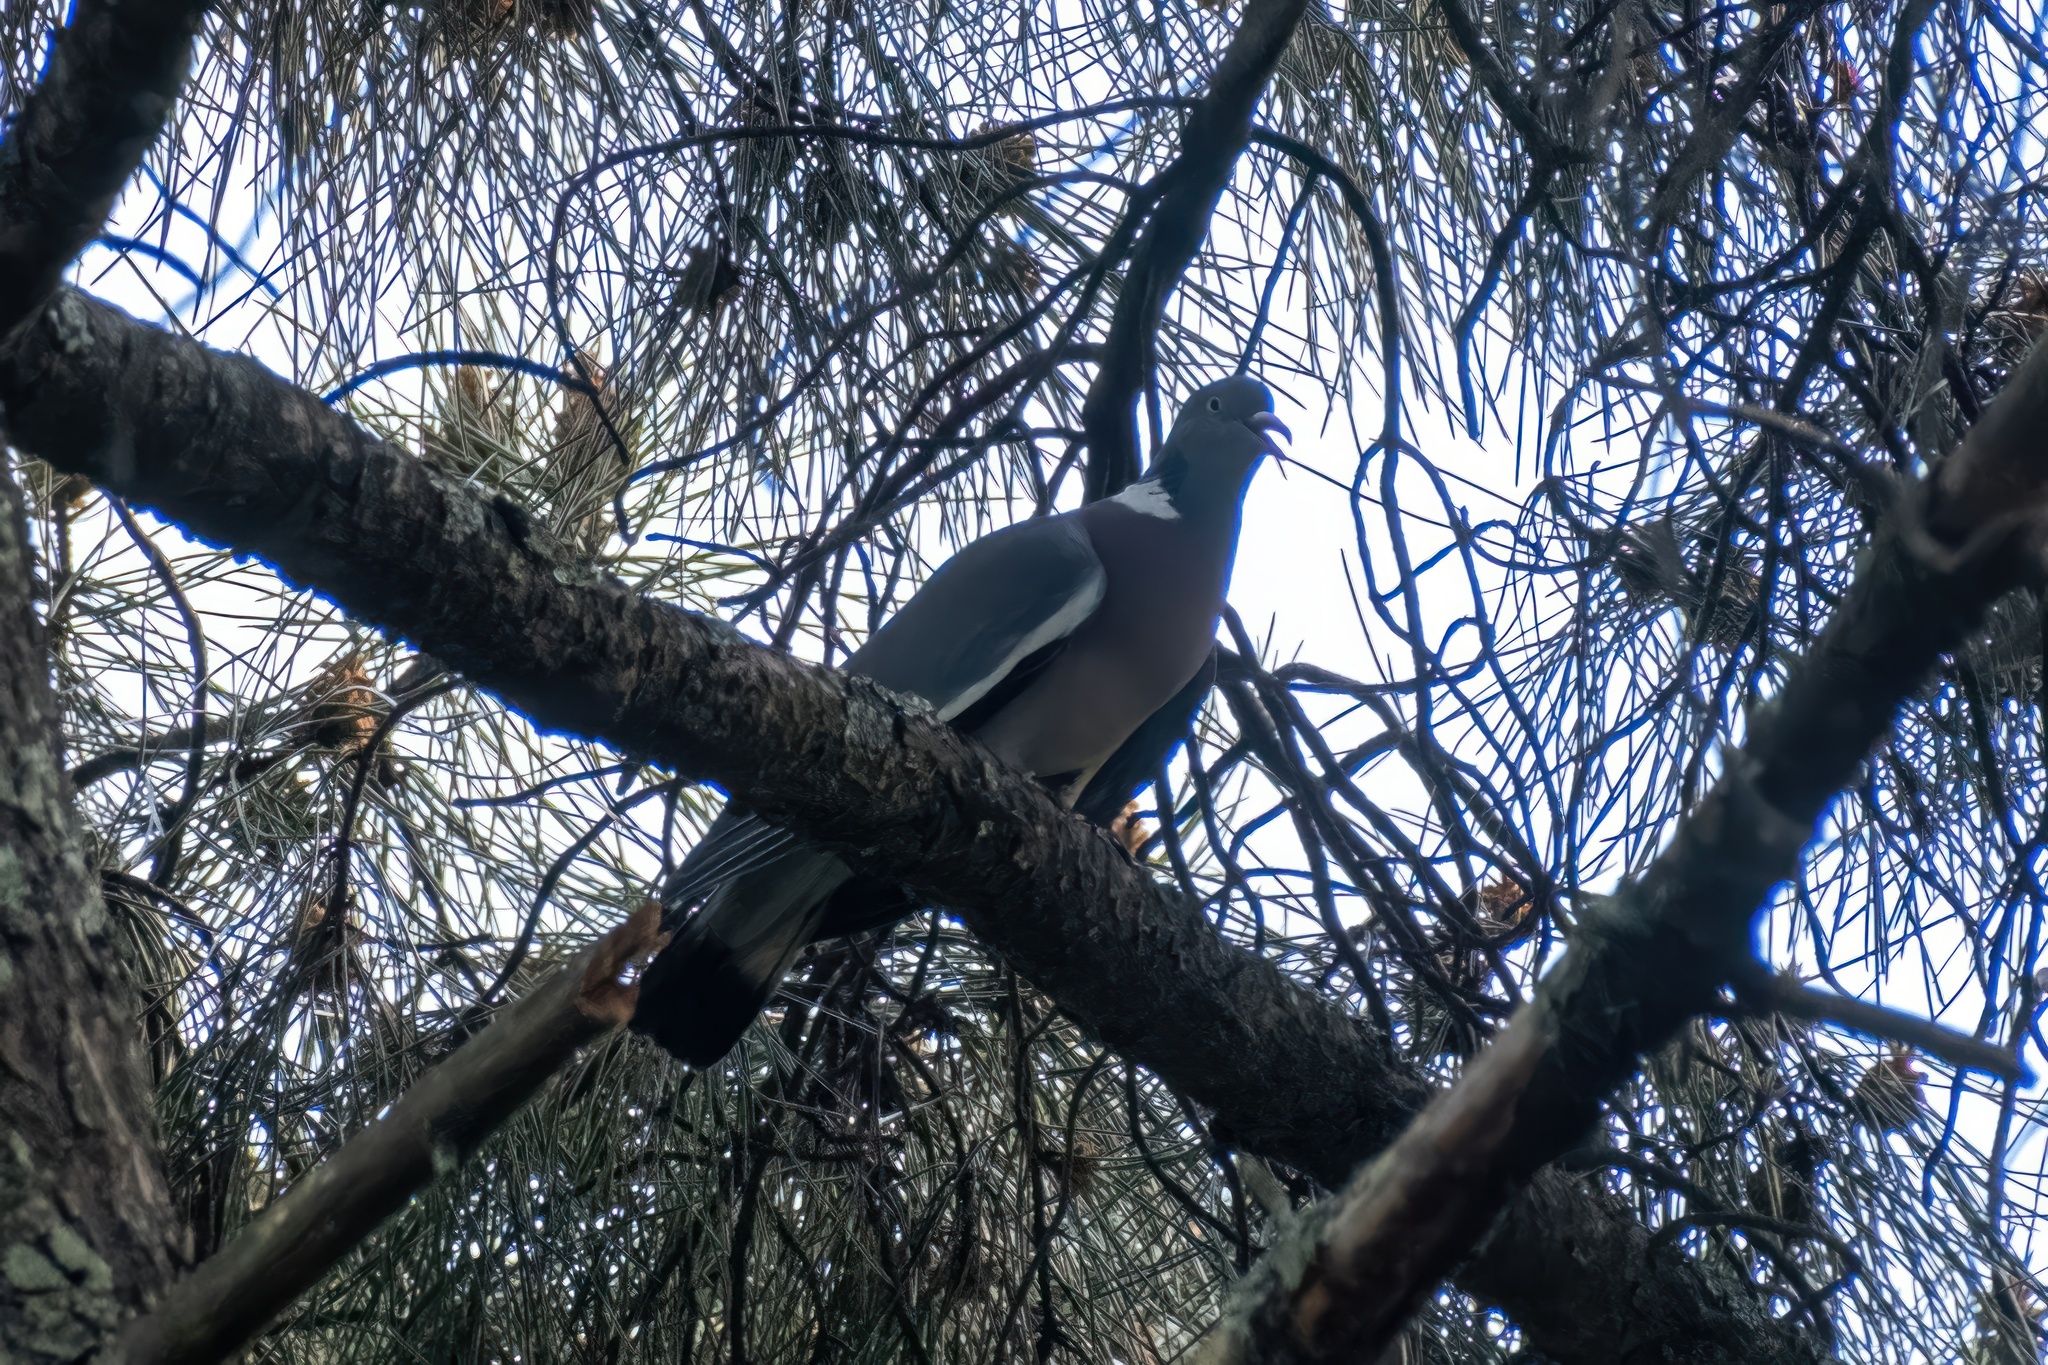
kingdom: Animalia
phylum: Chordata
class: Aves
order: Columbiformes
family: Columbidae
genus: Columba
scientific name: Columba palumbus
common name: Common wood pigeon
